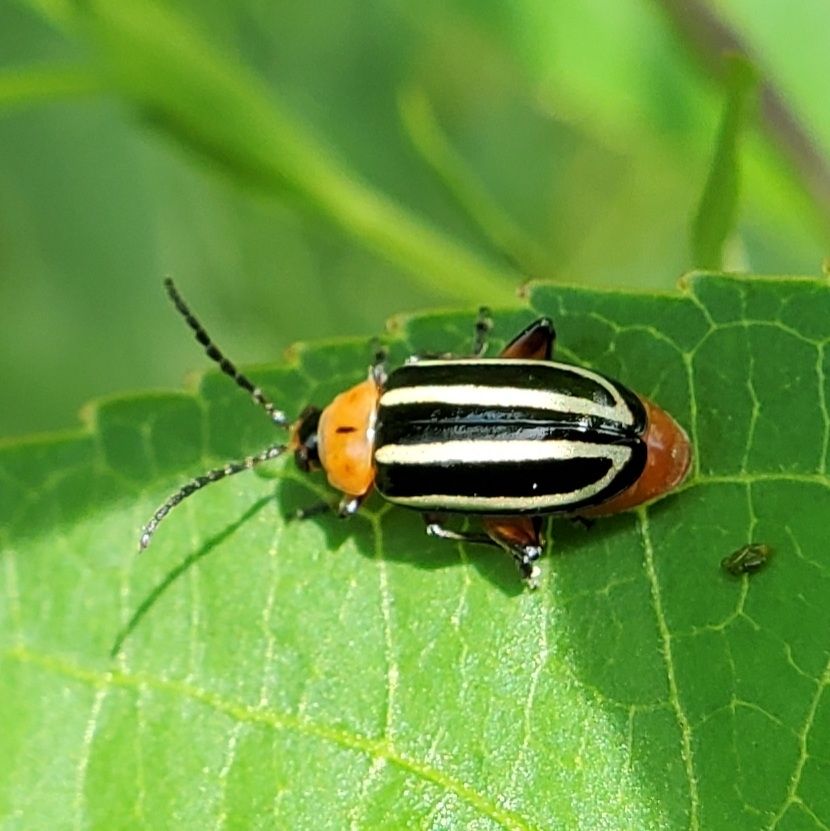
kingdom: Animalia
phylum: Arthropoda
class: Insecta
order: Coleoptera
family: Chrysomelidae
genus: Disonycha
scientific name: Disonycha glabrata
